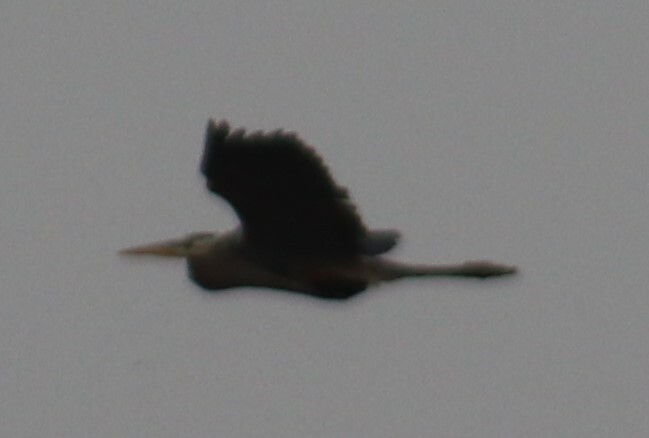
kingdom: Animalia
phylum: Chordata
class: Aves
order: Pelecaniformes
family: Ardeidae
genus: Ardea
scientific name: Ardea herodias
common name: Great blue heron
